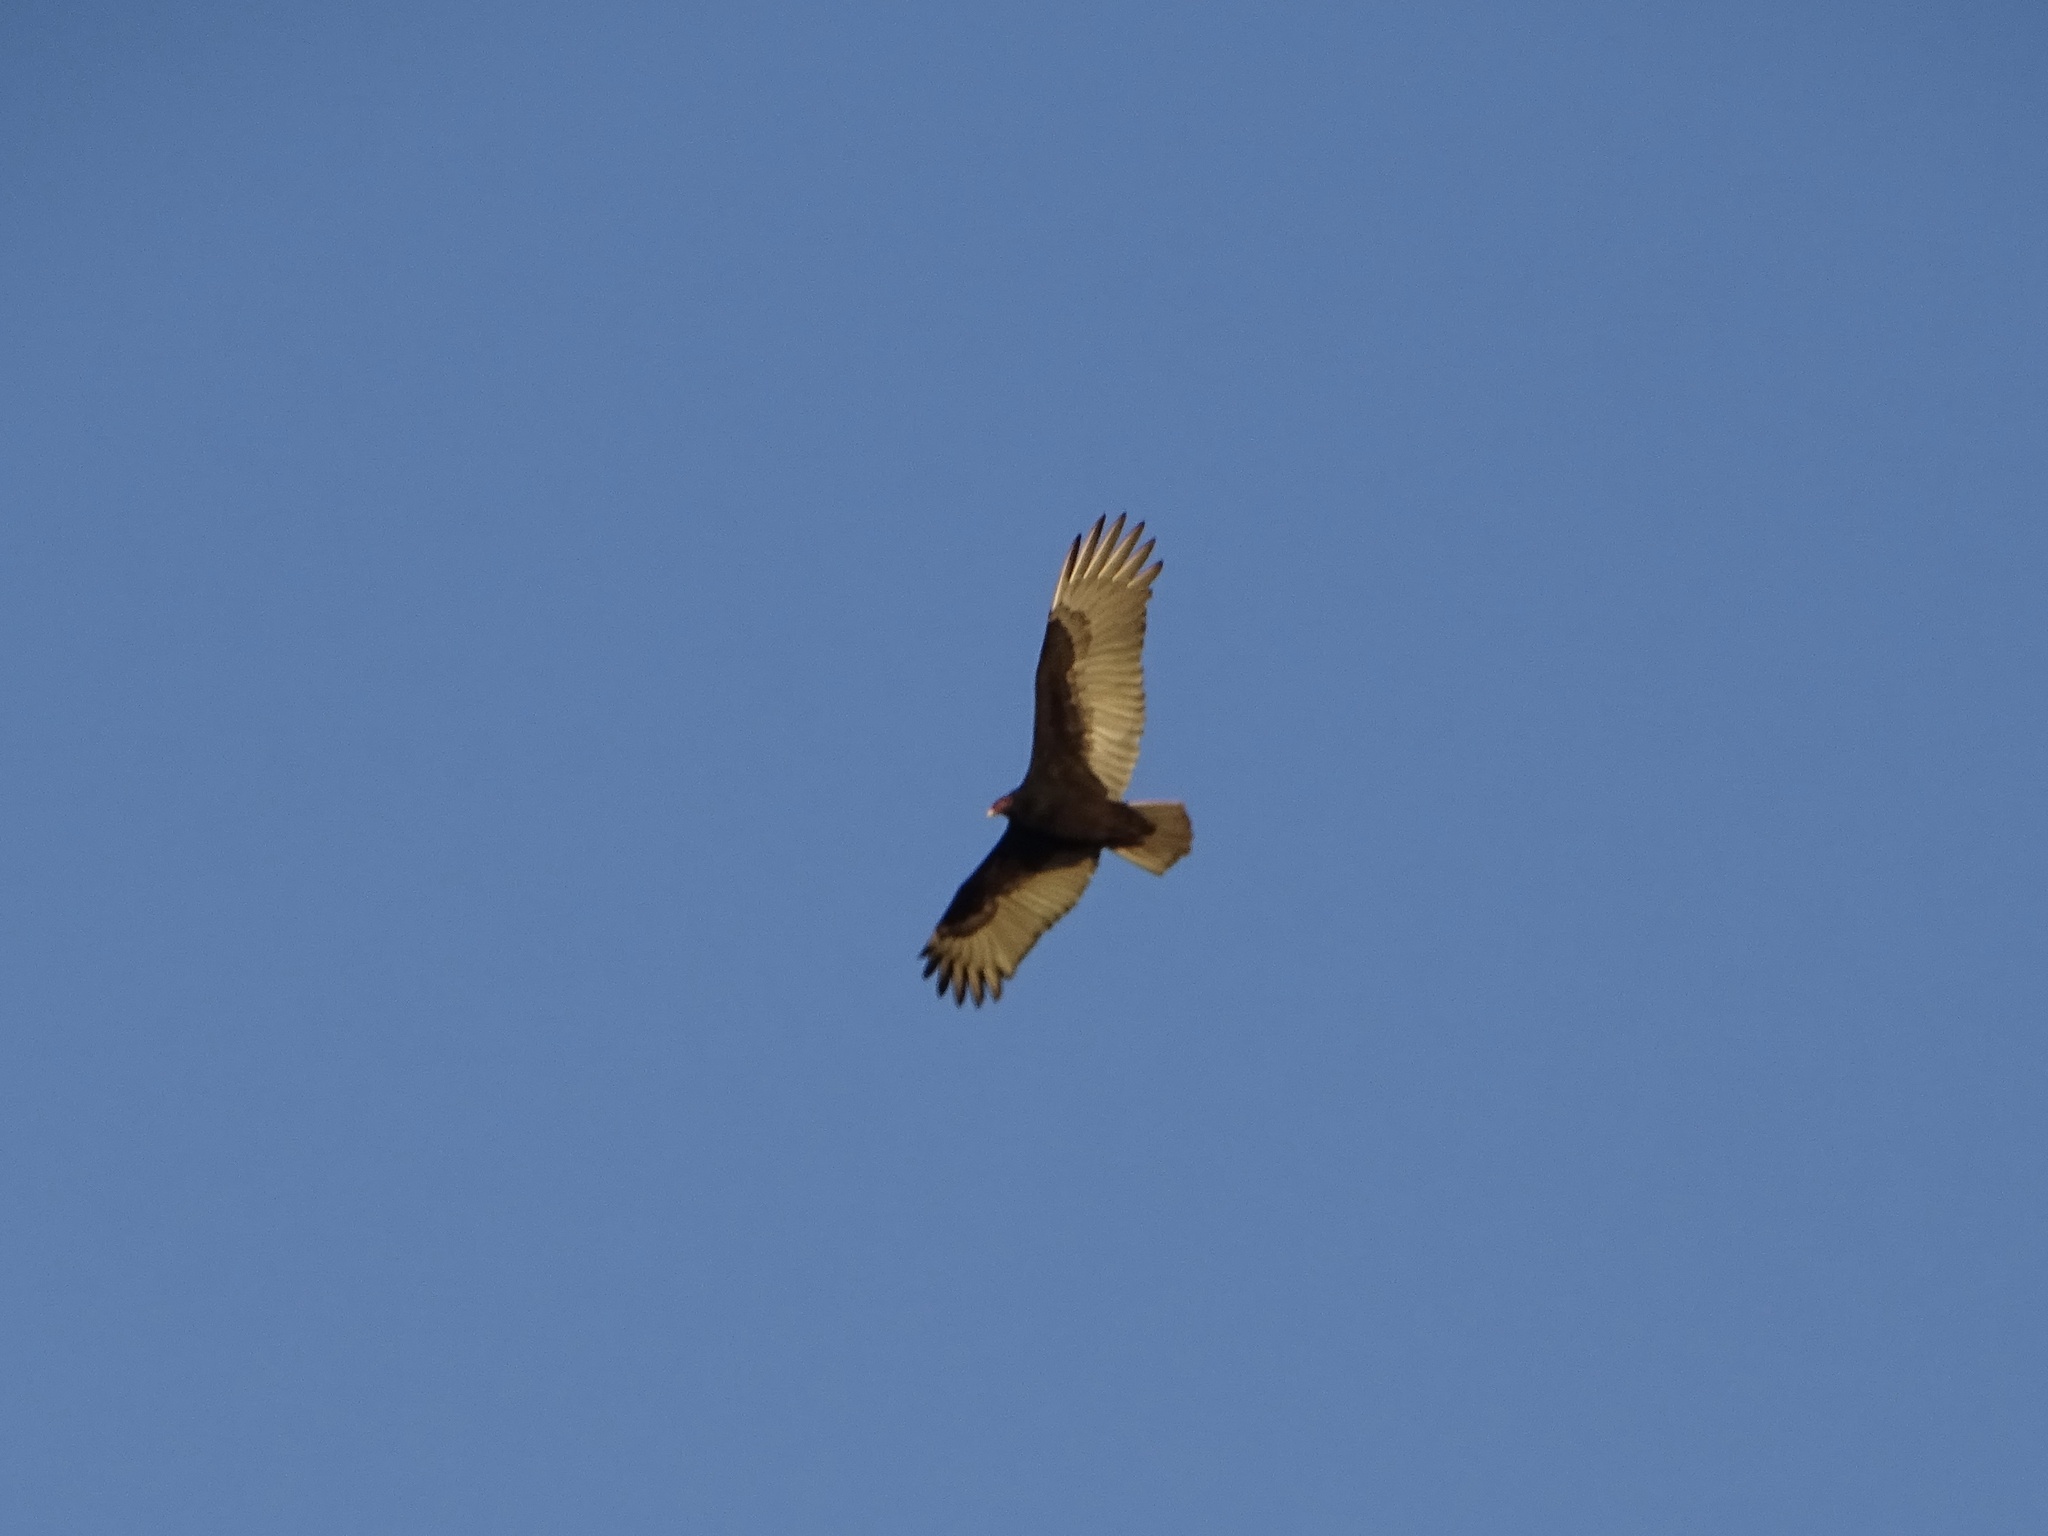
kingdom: Animalia
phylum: Chordata
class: Aves
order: Accipitriformes
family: Cathartidae
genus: Cathartes
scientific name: Cathartes aura
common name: Turkey vulture
